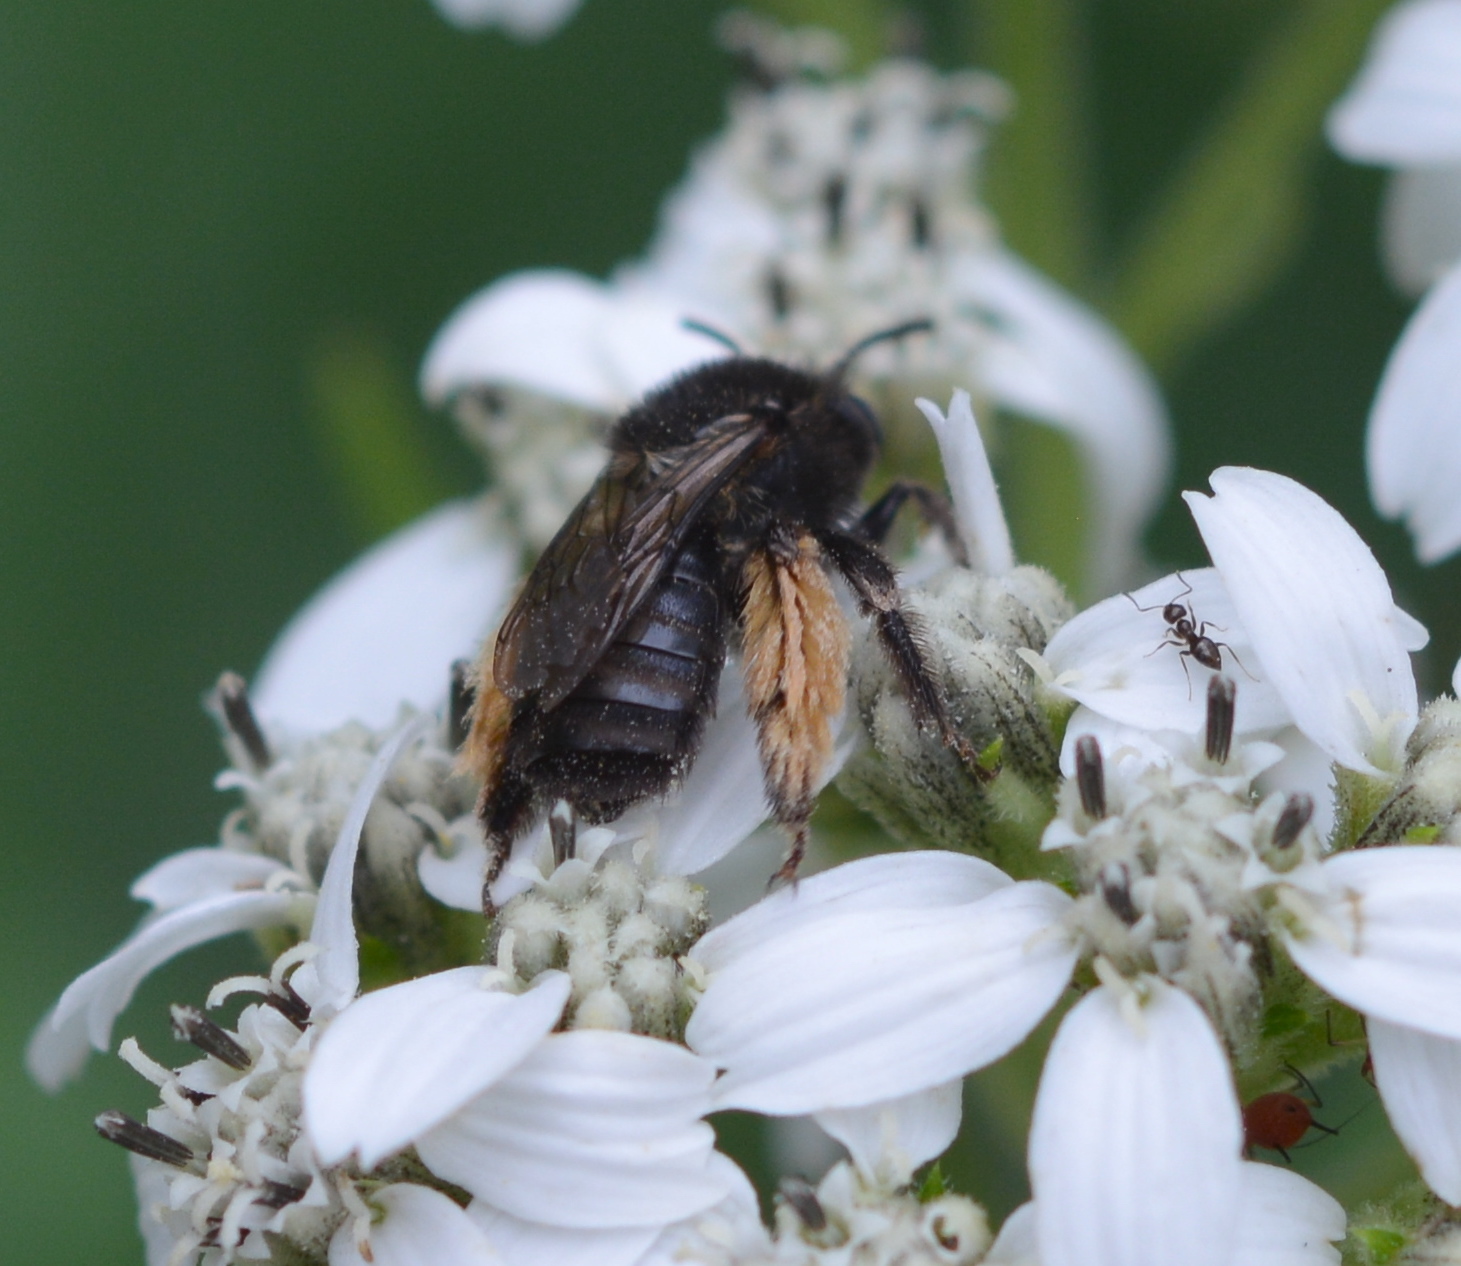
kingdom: Animalia
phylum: Arthropoda
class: Insecta
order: Hymenoptera
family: Apidae
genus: Melissodes
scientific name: Melissodes bimaculatus
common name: Two-spotted long-horned bee
